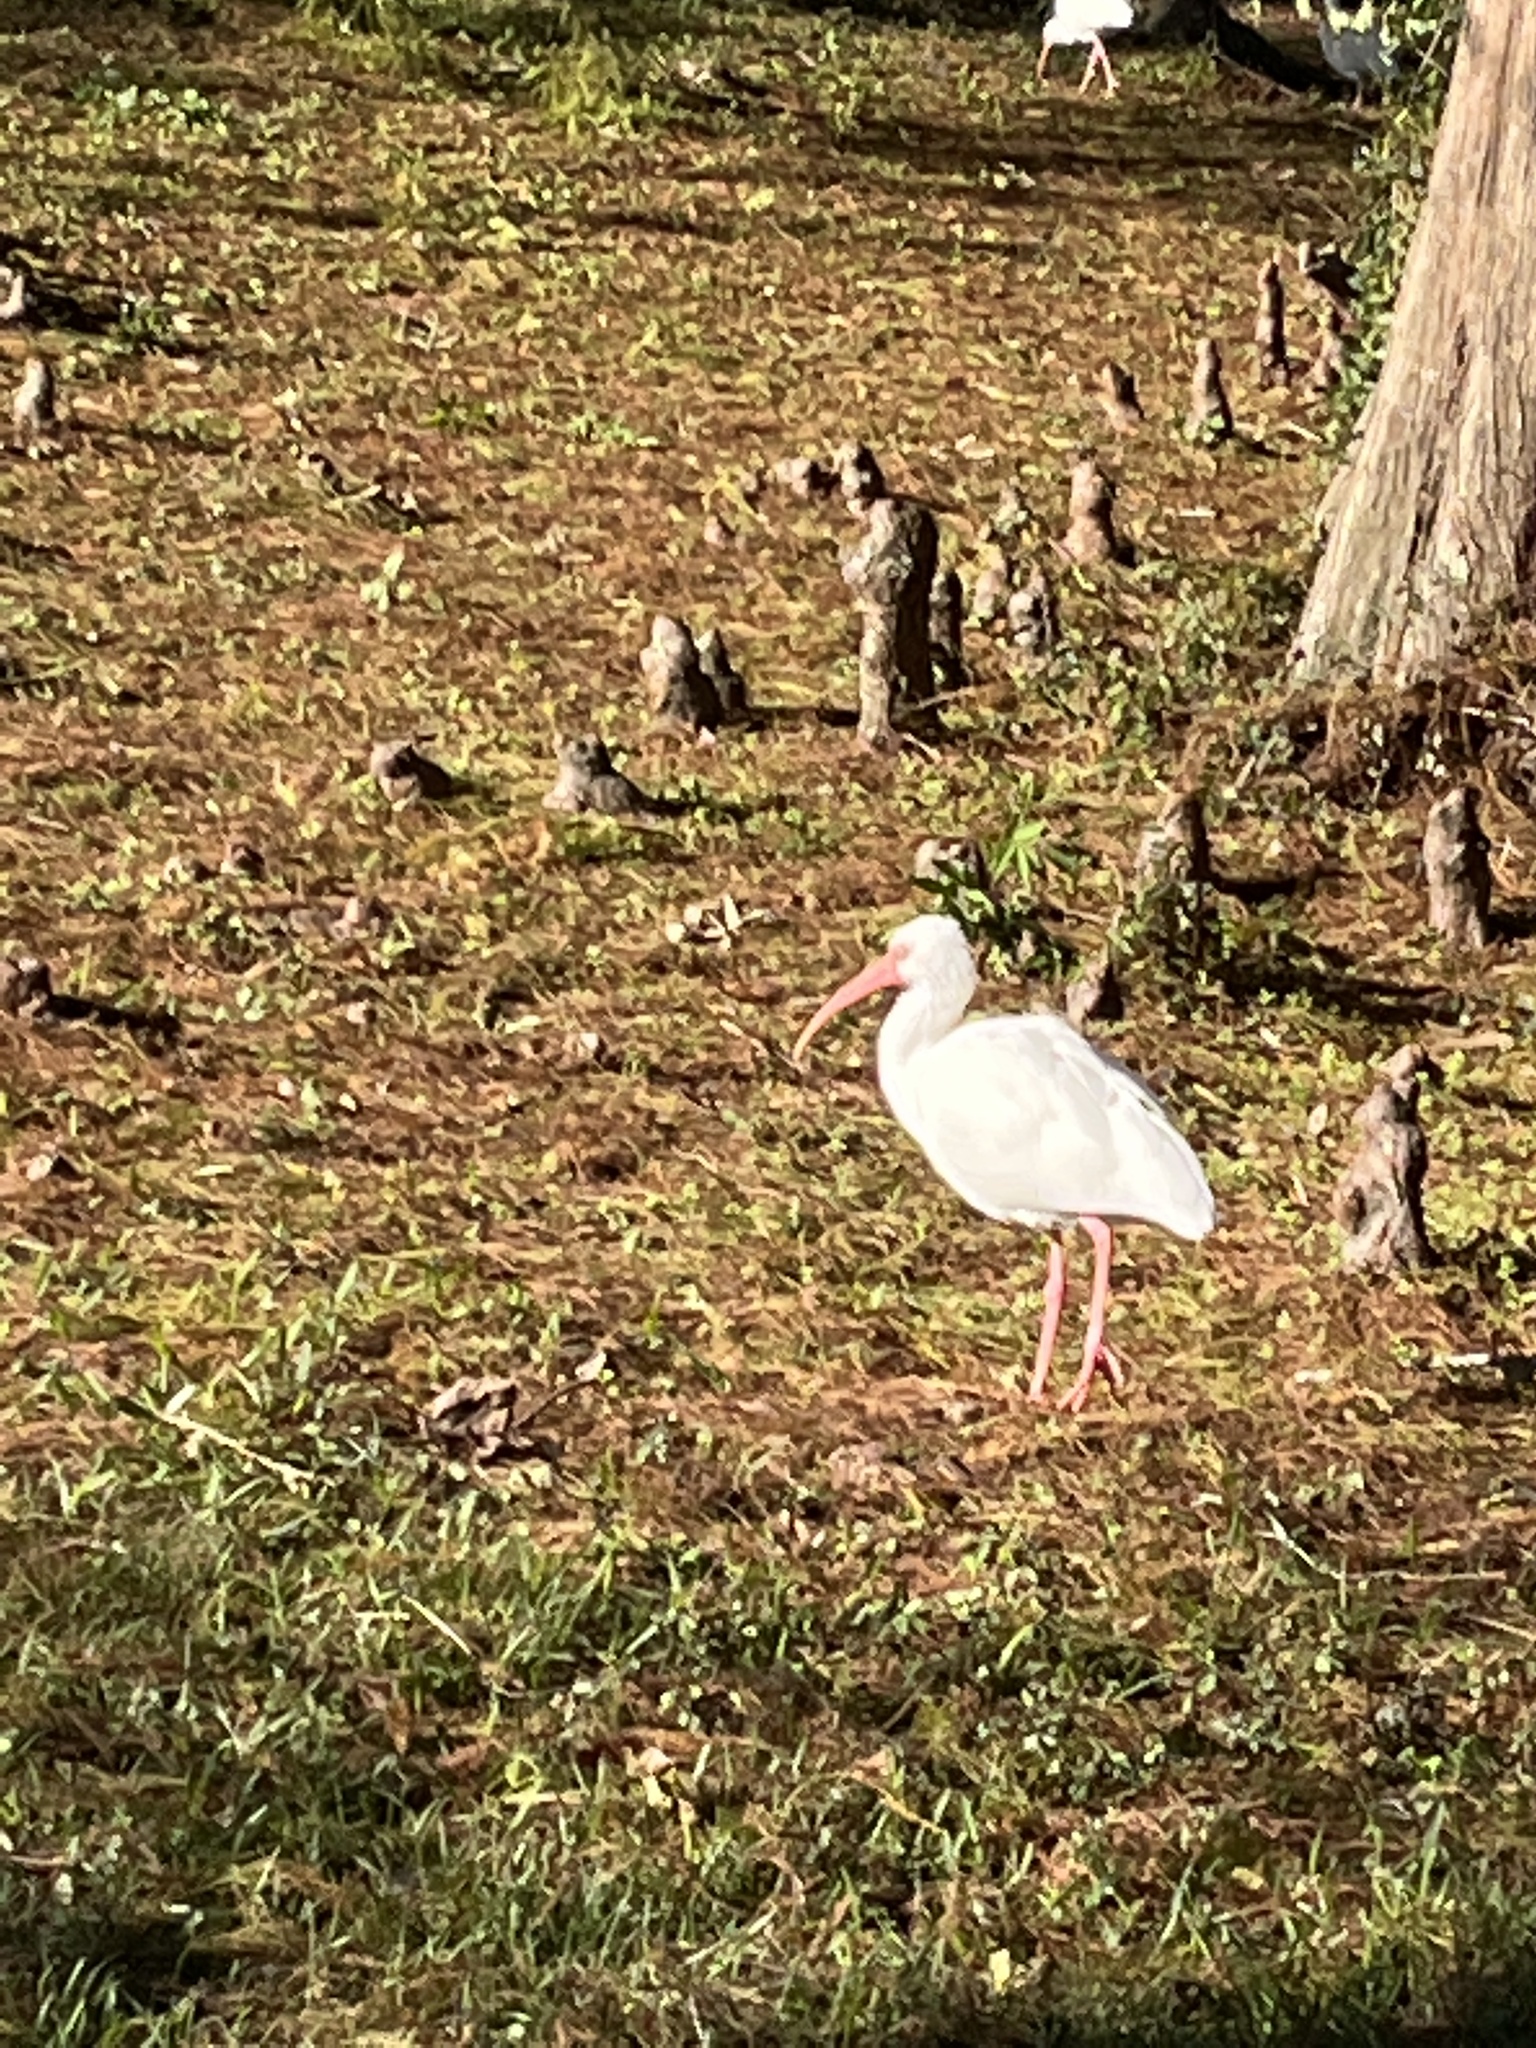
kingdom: Animalia
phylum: Chordata
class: Aves
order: Pelecaniformes
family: Threskiornithidae
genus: Eudocimus
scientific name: Eudocimus albus
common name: White ibis
